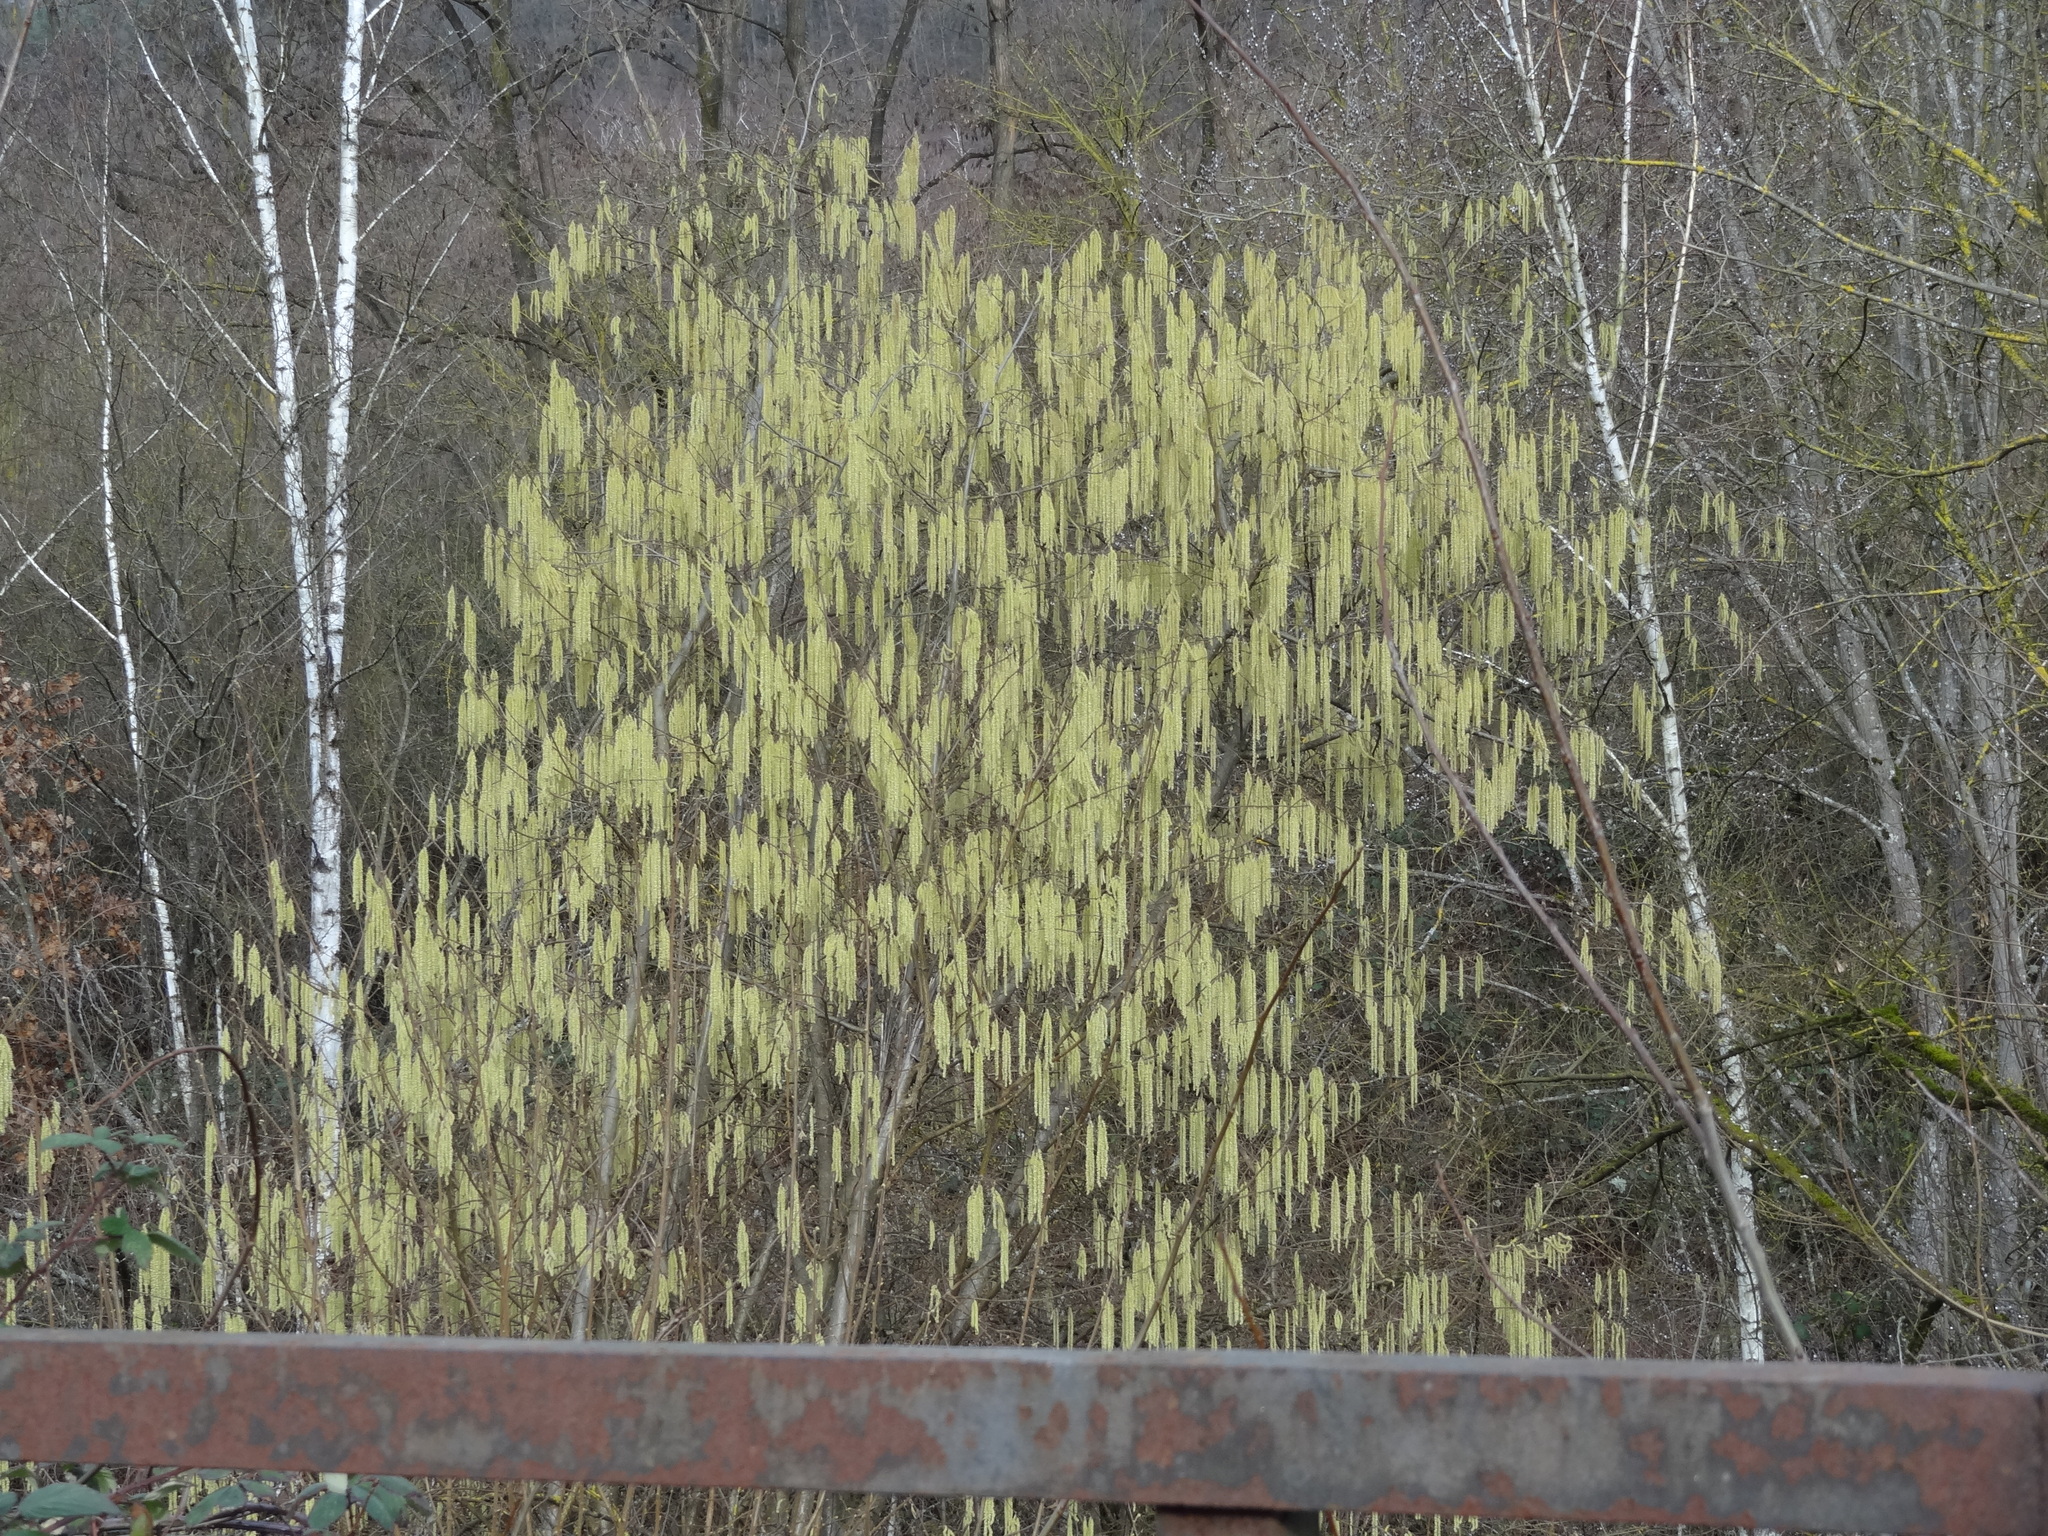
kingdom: Plantae
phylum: Tracheophyta
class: Magnoliopsida
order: Fagales
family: Betulaceae
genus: Corylus
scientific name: Corylus avellana
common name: European hazel
